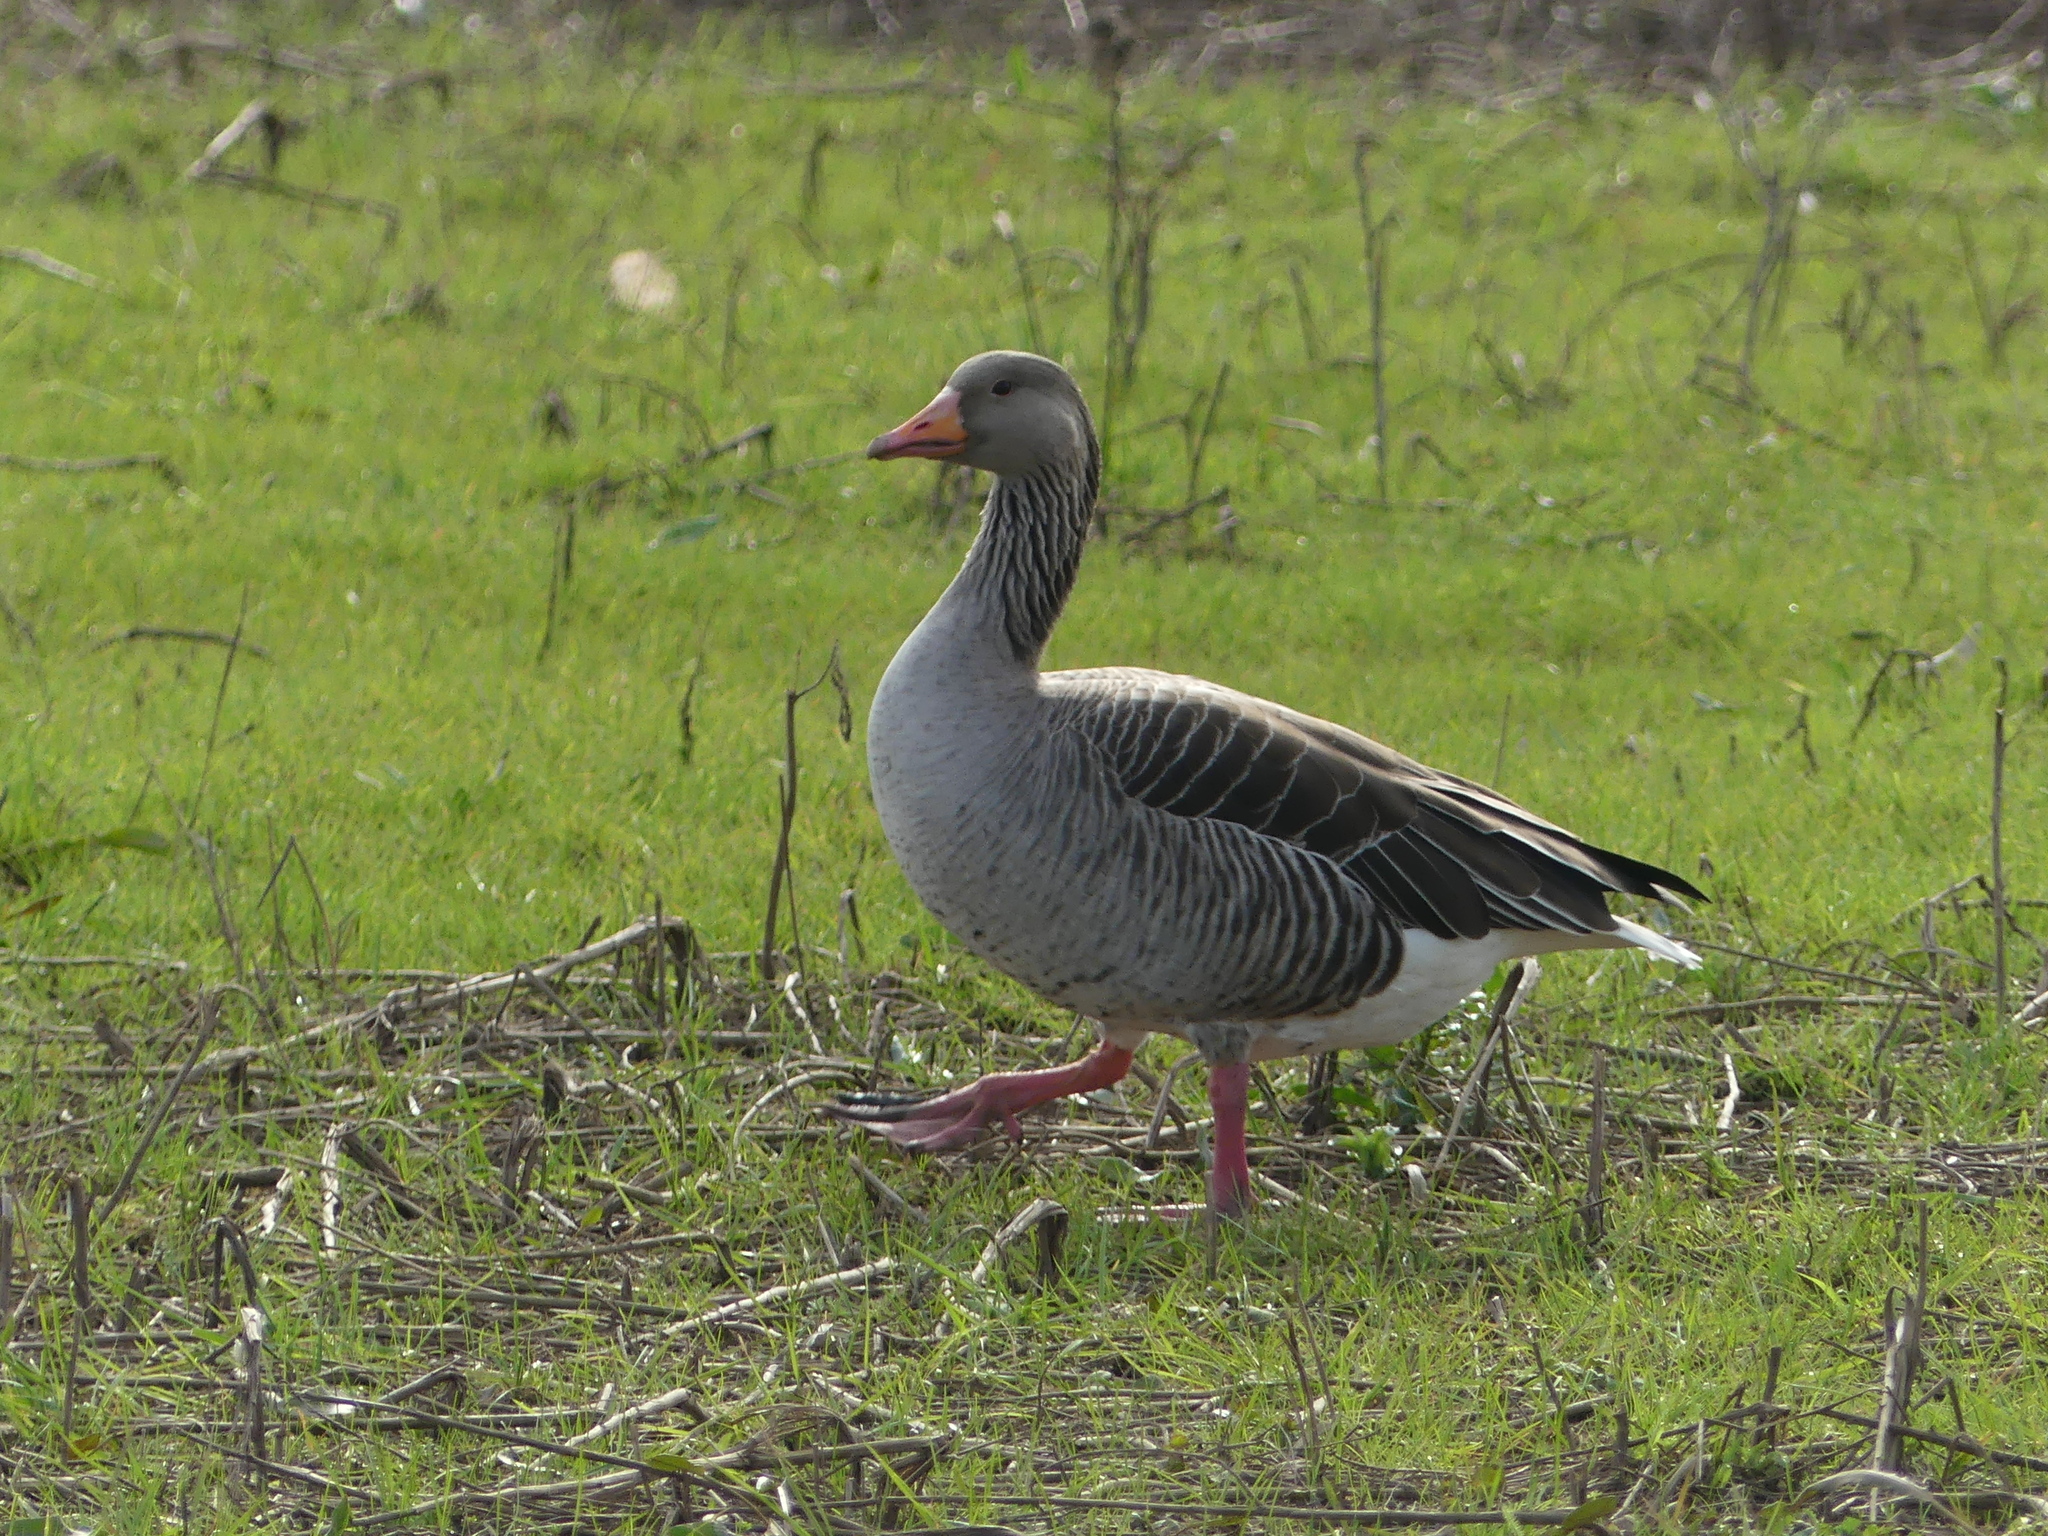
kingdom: Animalia
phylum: Chordata
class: Aves
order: Anseriformes
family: Anatidae
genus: Anser
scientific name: Anser anser
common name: Greylag goose
